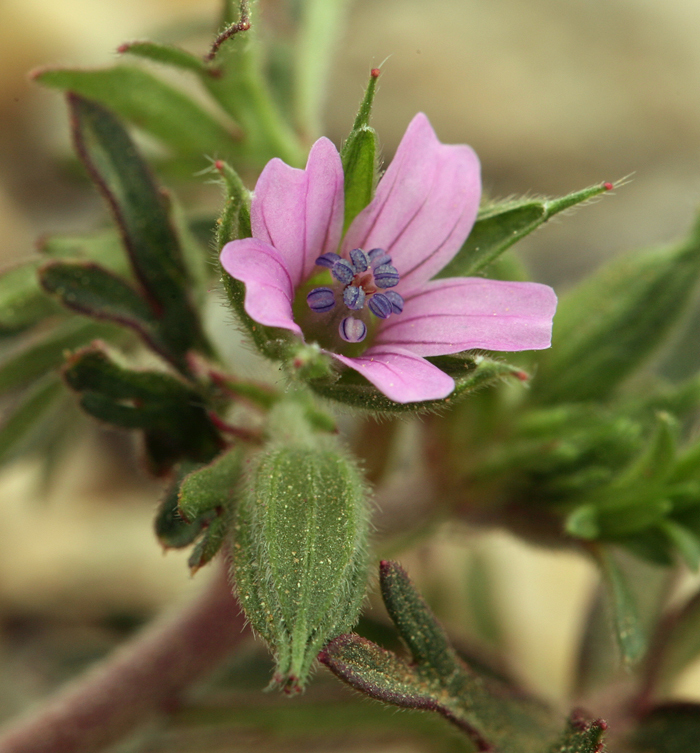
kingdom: Plantae
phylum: Tracheophyta
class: Magnoliopsida
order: Geraniales
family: Geraniaceae
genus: Geranium
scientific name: Geranium dissectum
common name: Cut-leaved crane's-bill
